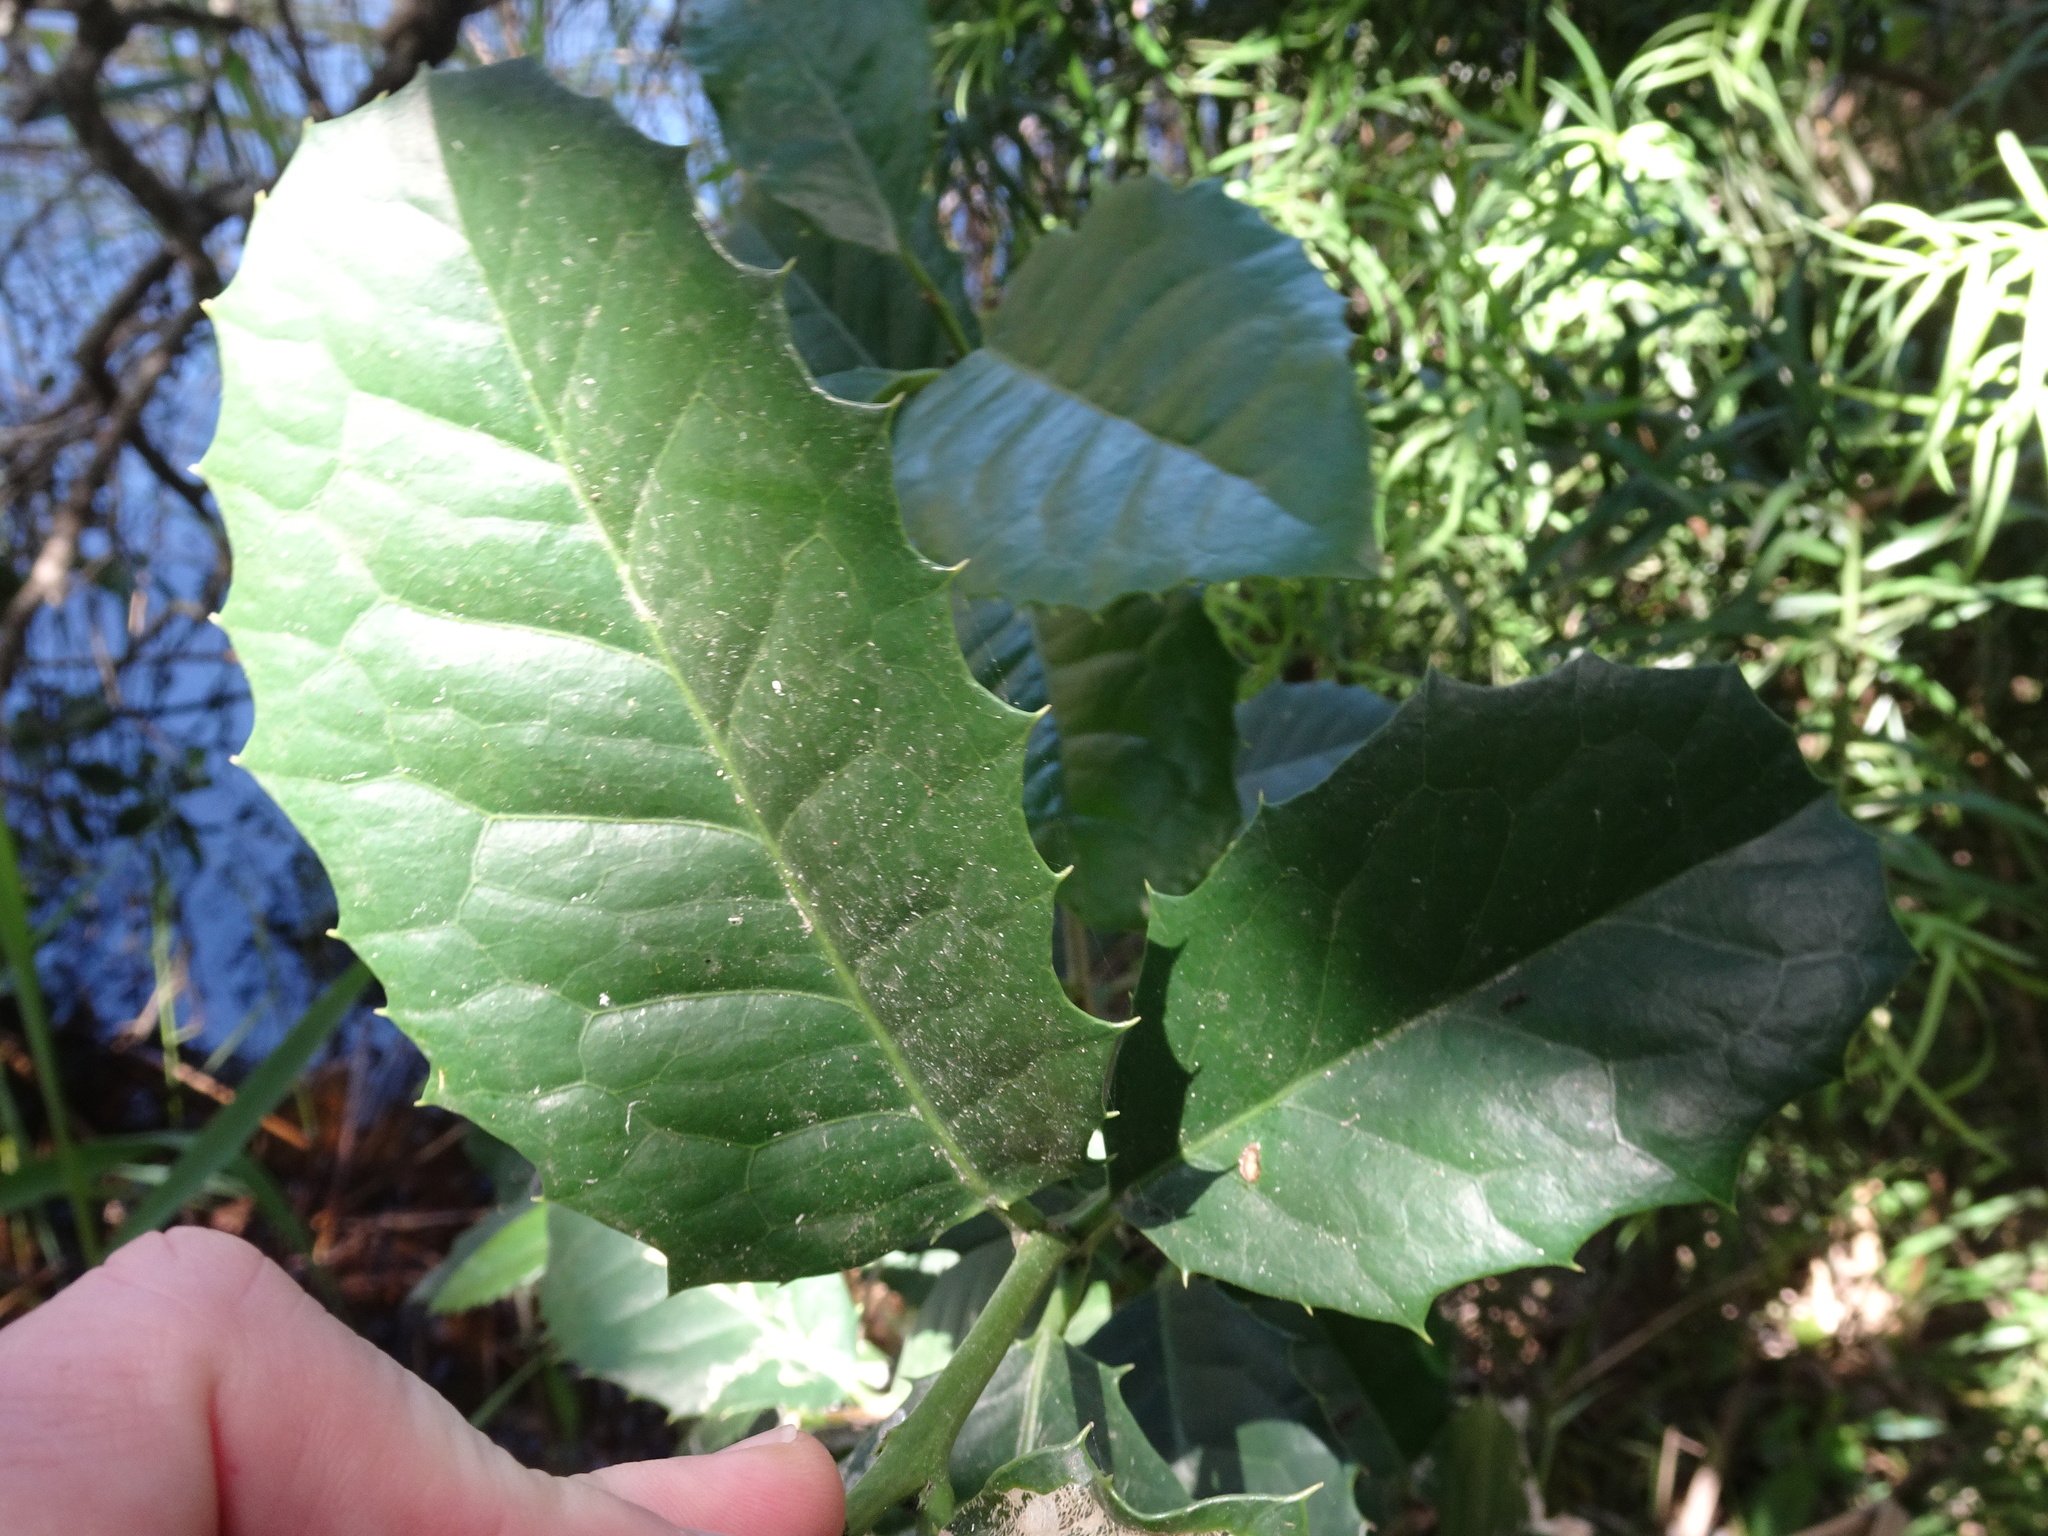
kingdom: Plantae
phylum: Tracheophyta
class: Magnoliopsida
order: Celastrales
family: Celastraceae
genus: Elaeodendron
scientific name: Elaeodendron croceum
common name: Saffron
